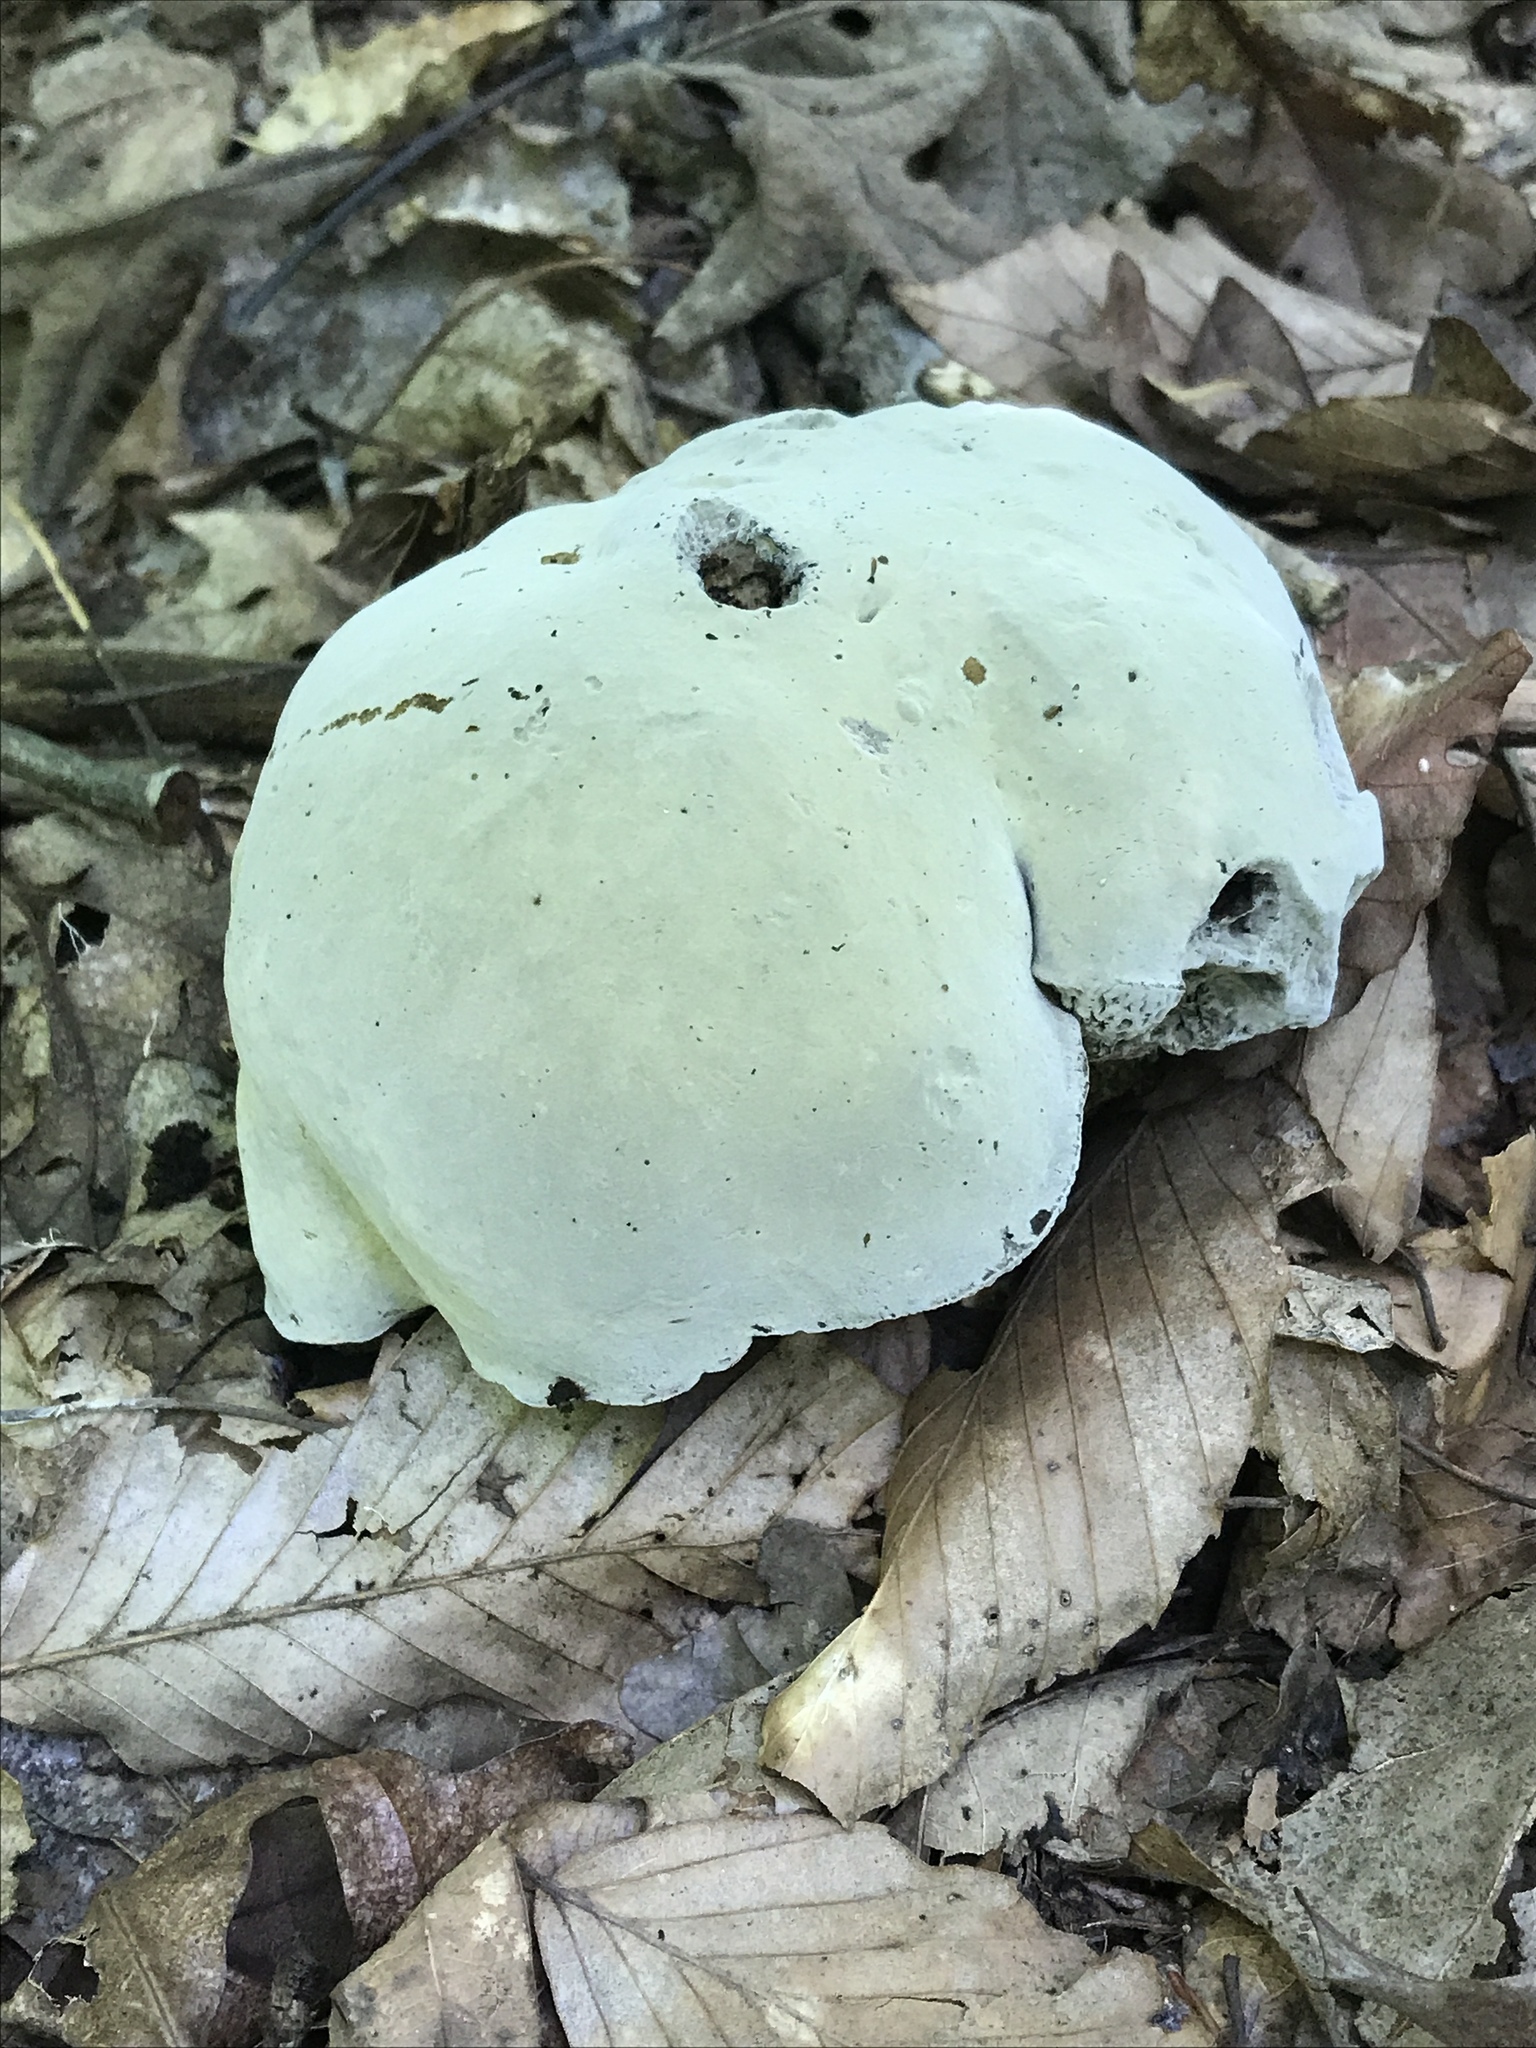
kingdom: Fungi
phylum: Ascomycota
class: Sordariomycetes
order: Hypocreales
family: Hypocreaceae
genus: Hypomyces
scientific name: Hypomyces chrysospermus
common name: Bolete mould
